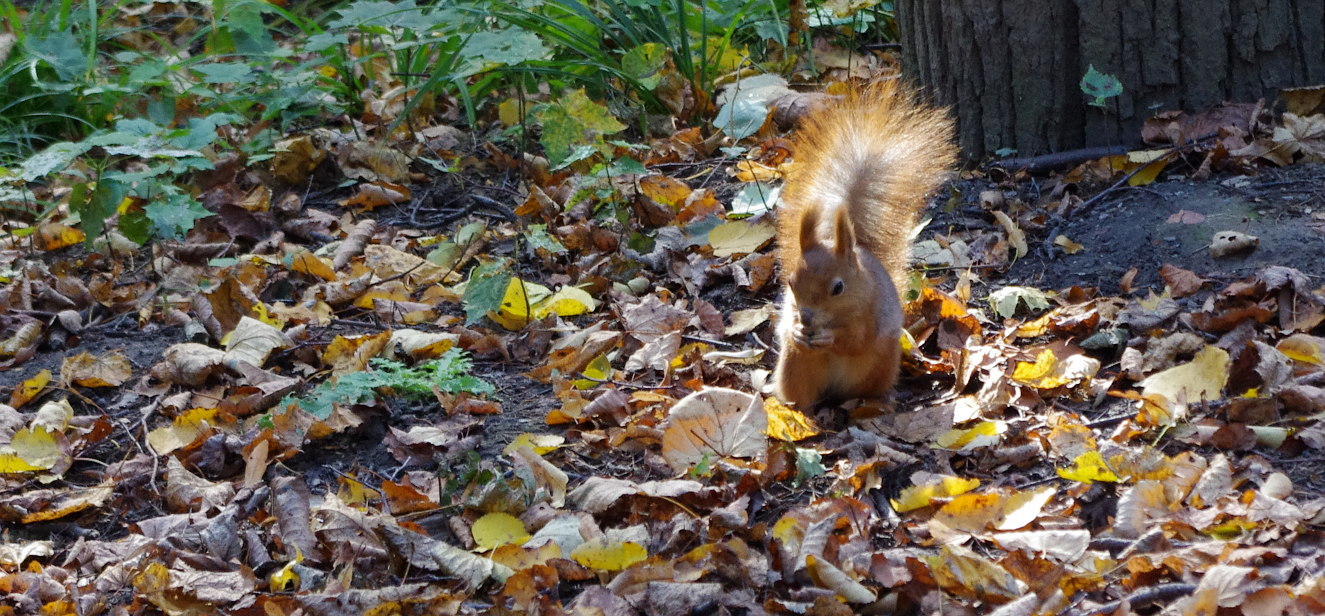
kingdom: Animalia
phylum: Chordata
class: Mammalia
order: Rodentia
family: Sciuridae
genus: Sciurus
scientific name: Sciurus vulgaris
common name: Eurasian red squirrel
